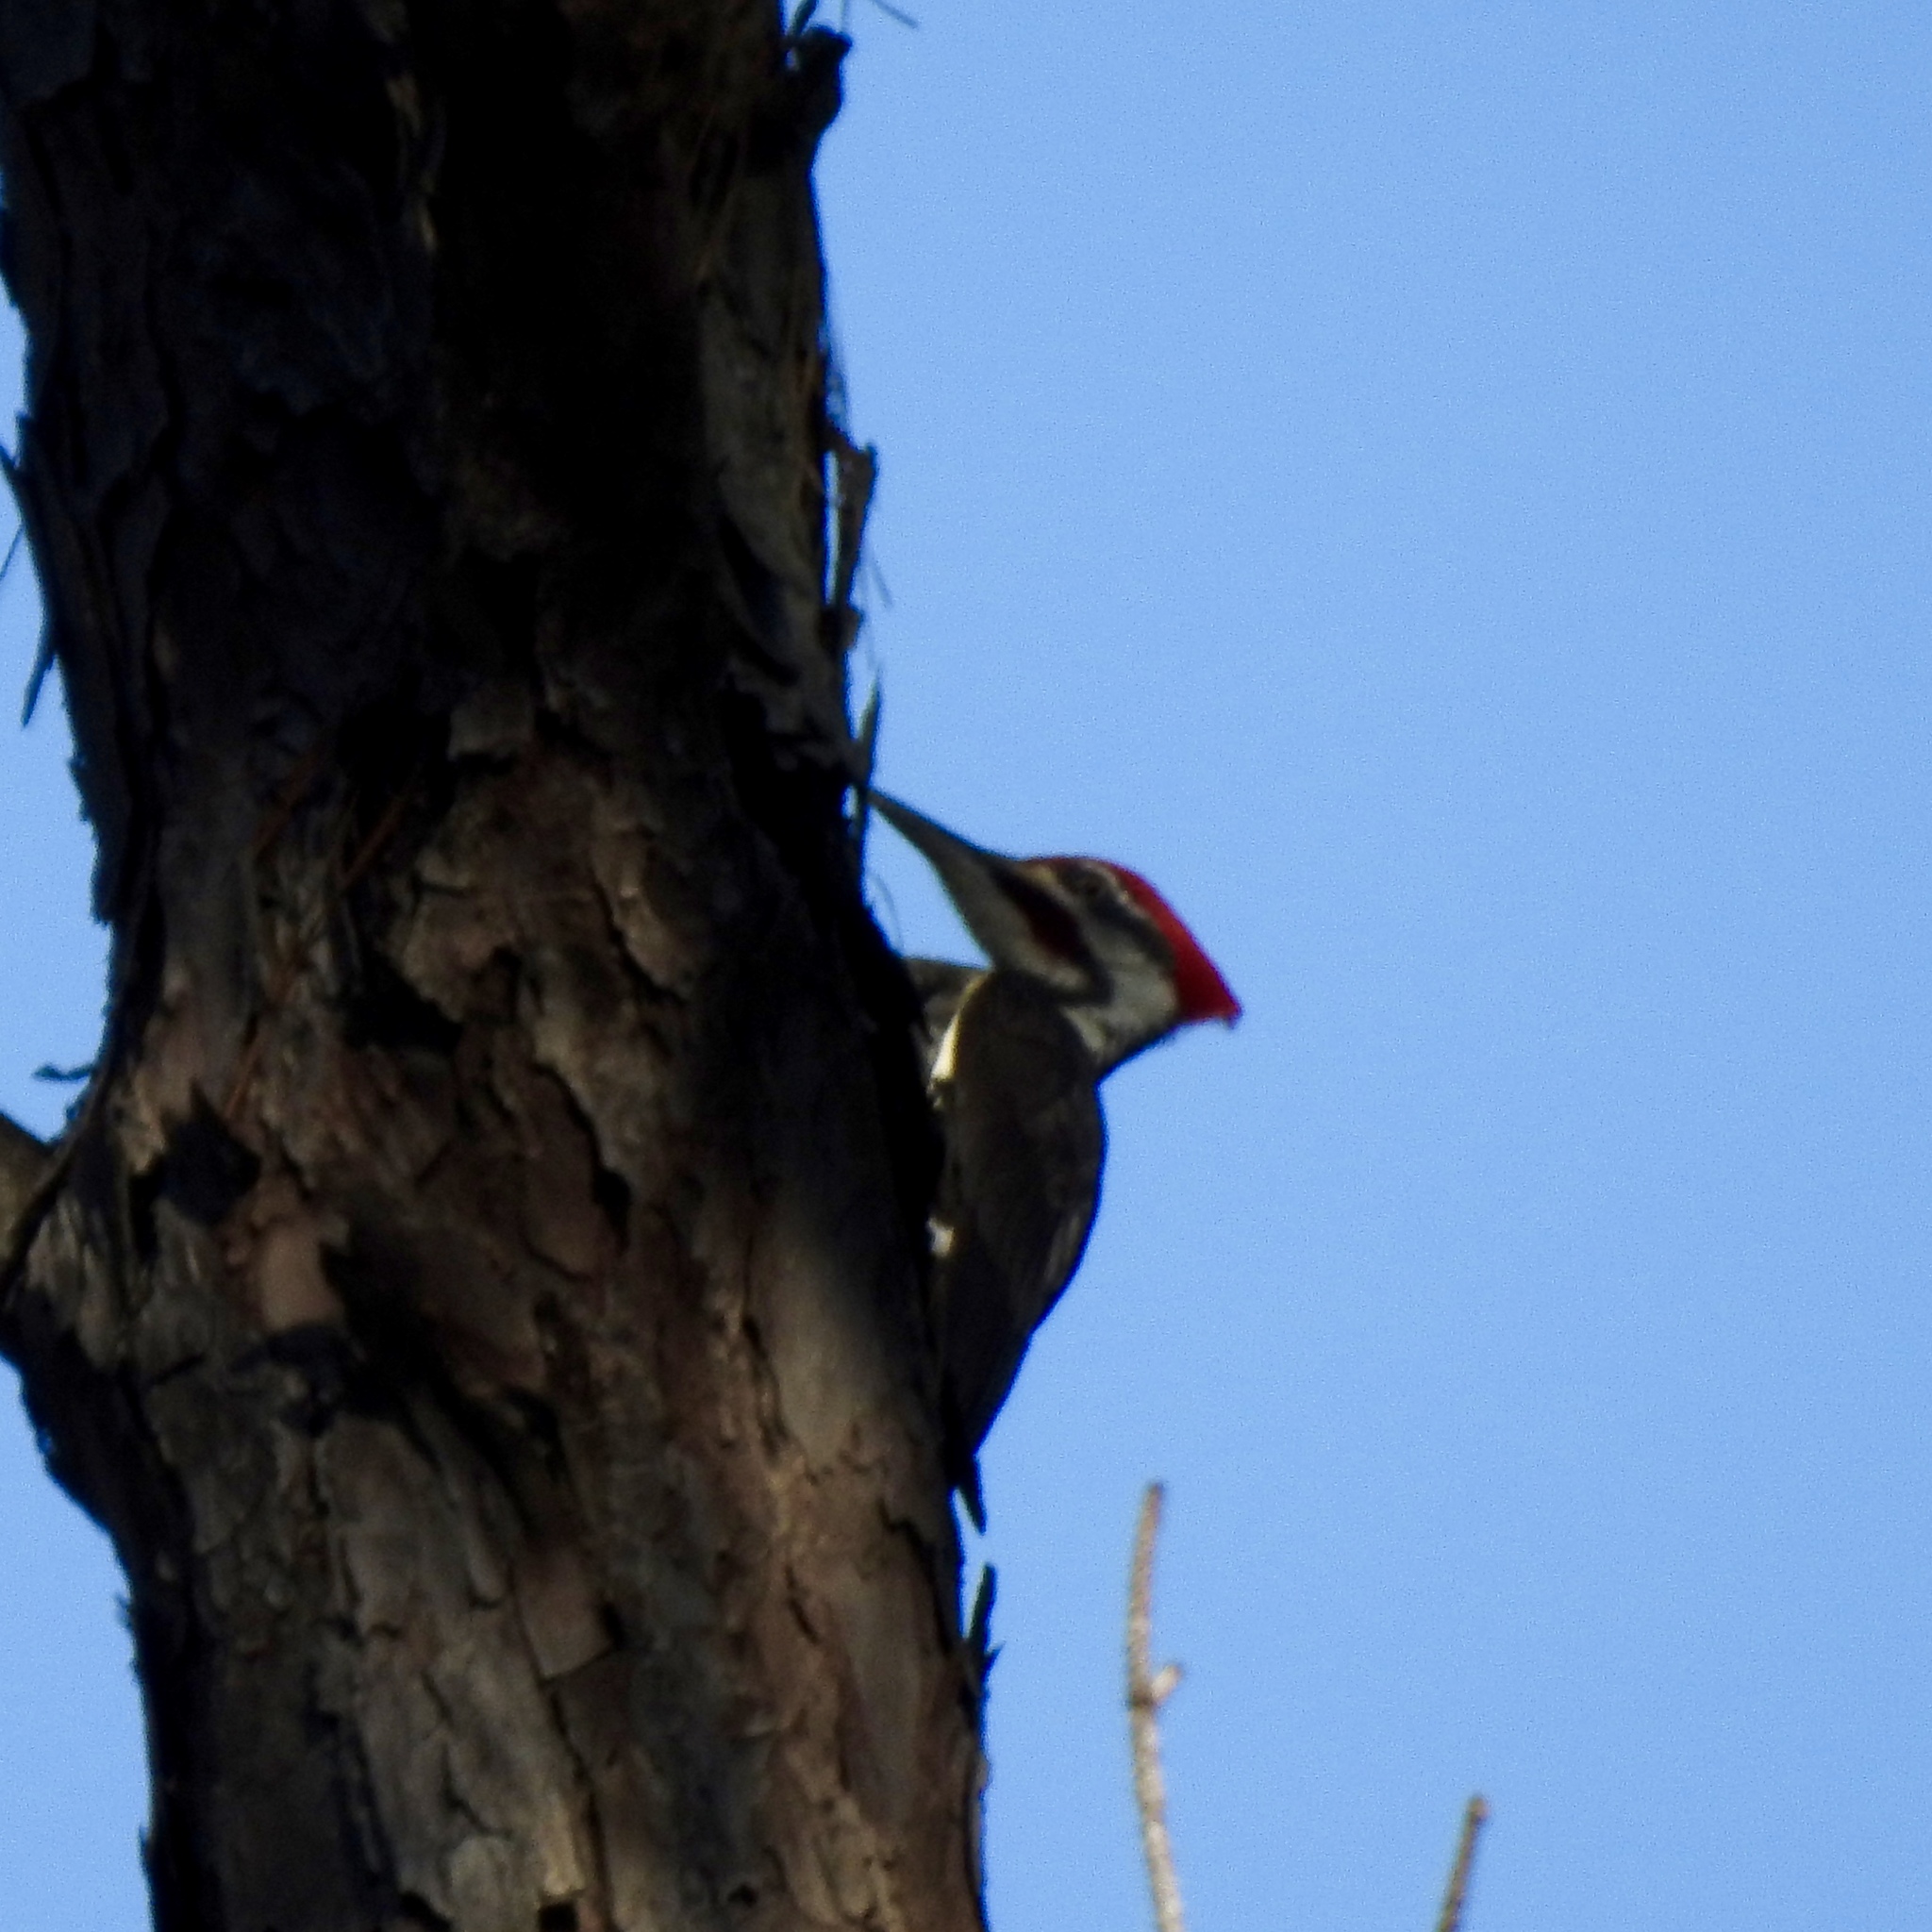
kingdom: Animalia
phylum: Chordata
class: Aves
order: Piciformes
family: Picidae
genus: Dryocopus
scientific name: Dryocopus pileatus
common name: Pileated woodpecker
